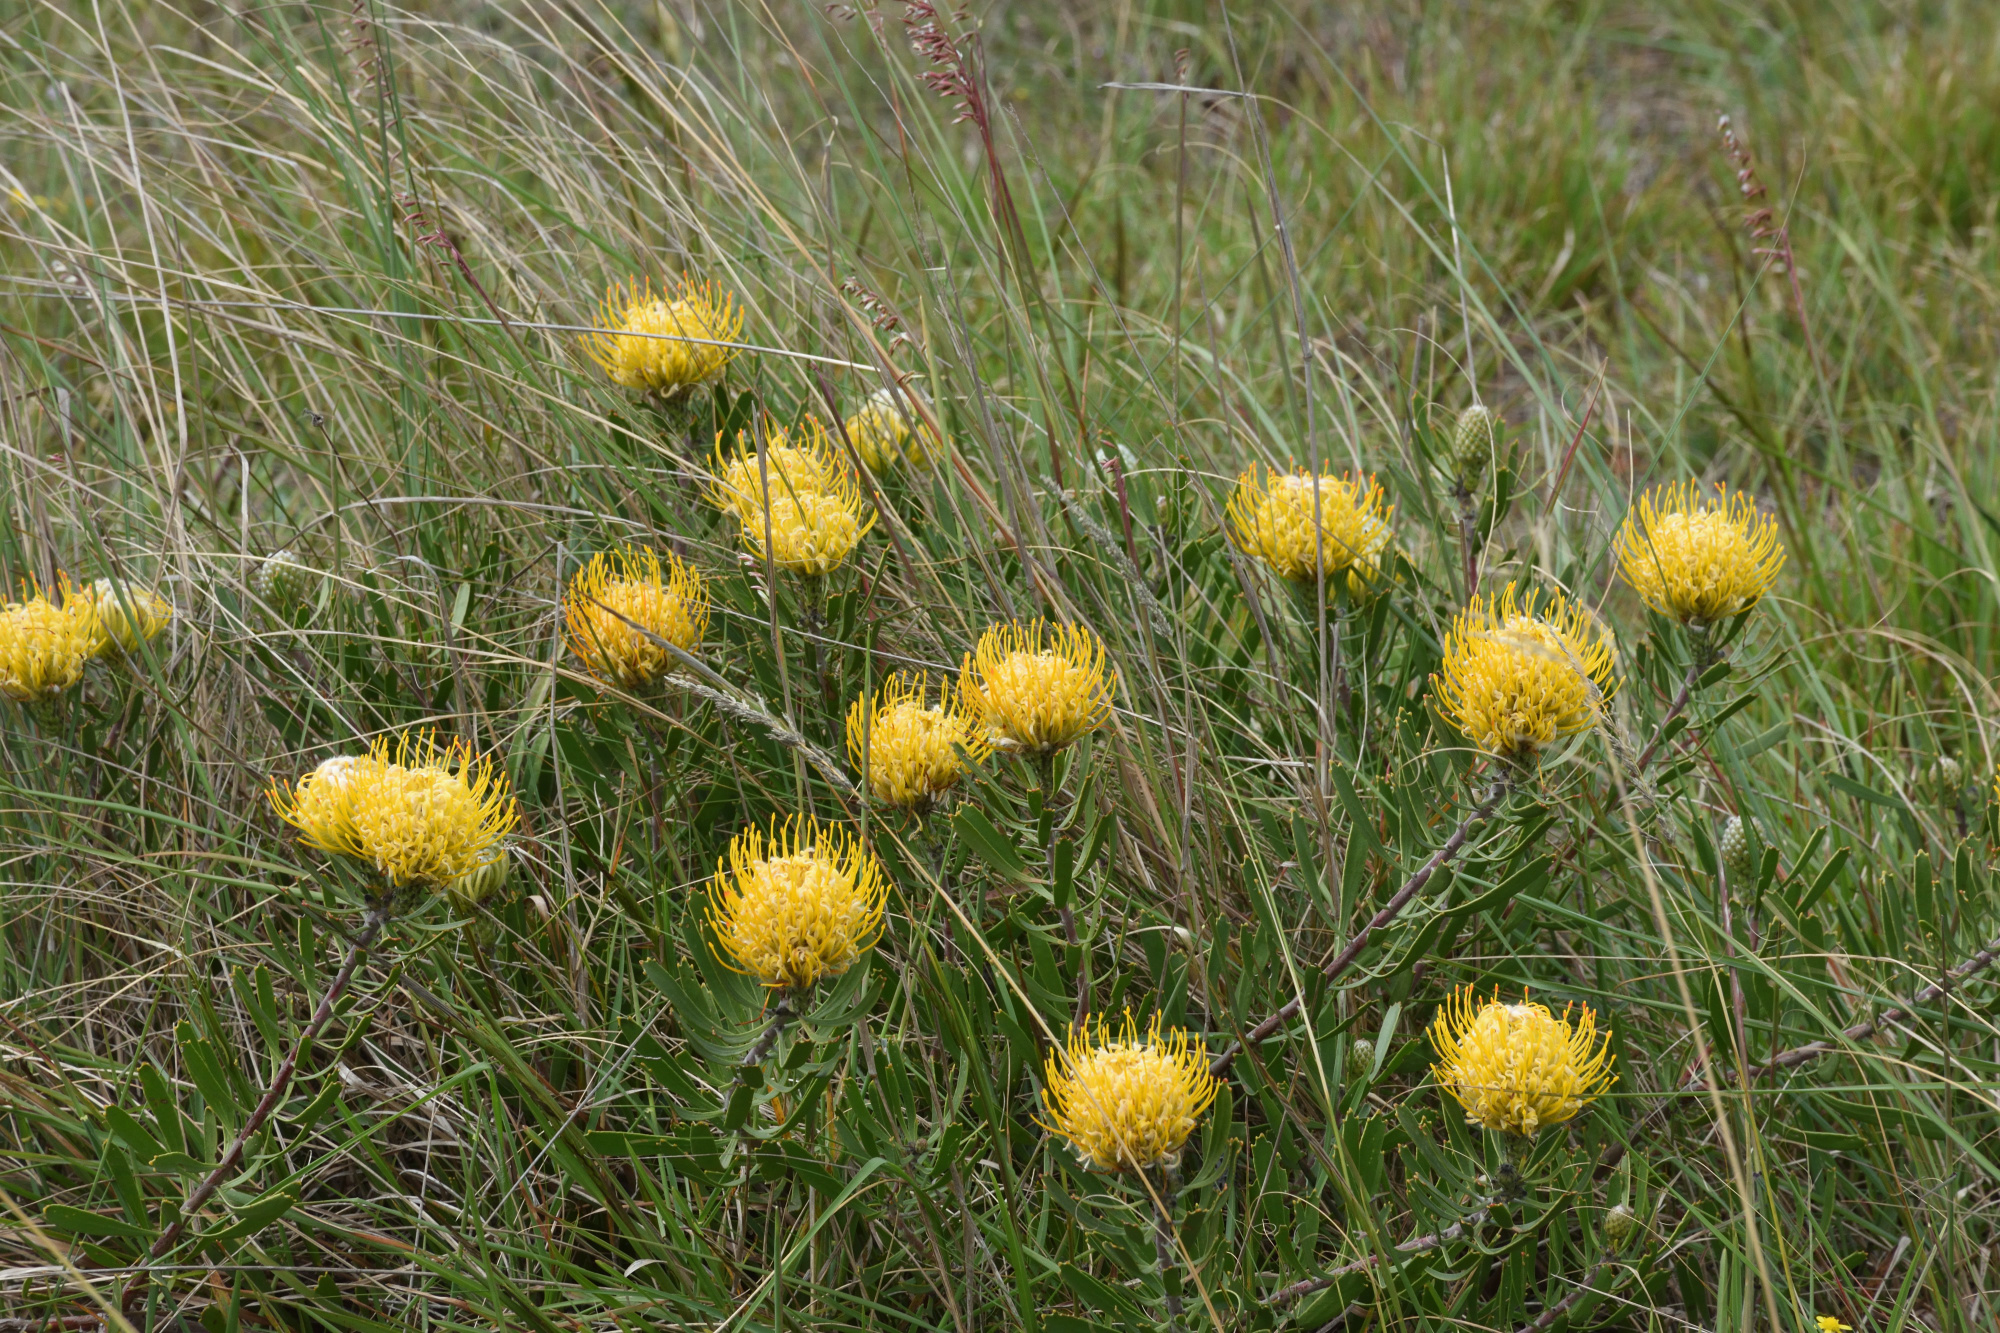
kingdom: Plantae
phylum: Tracheophyta
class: Magnoliopsida
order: Proteales
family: Proteaceae
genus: Leucospermum
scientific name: Leucospermum cuneiforme
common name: Common pincushion
